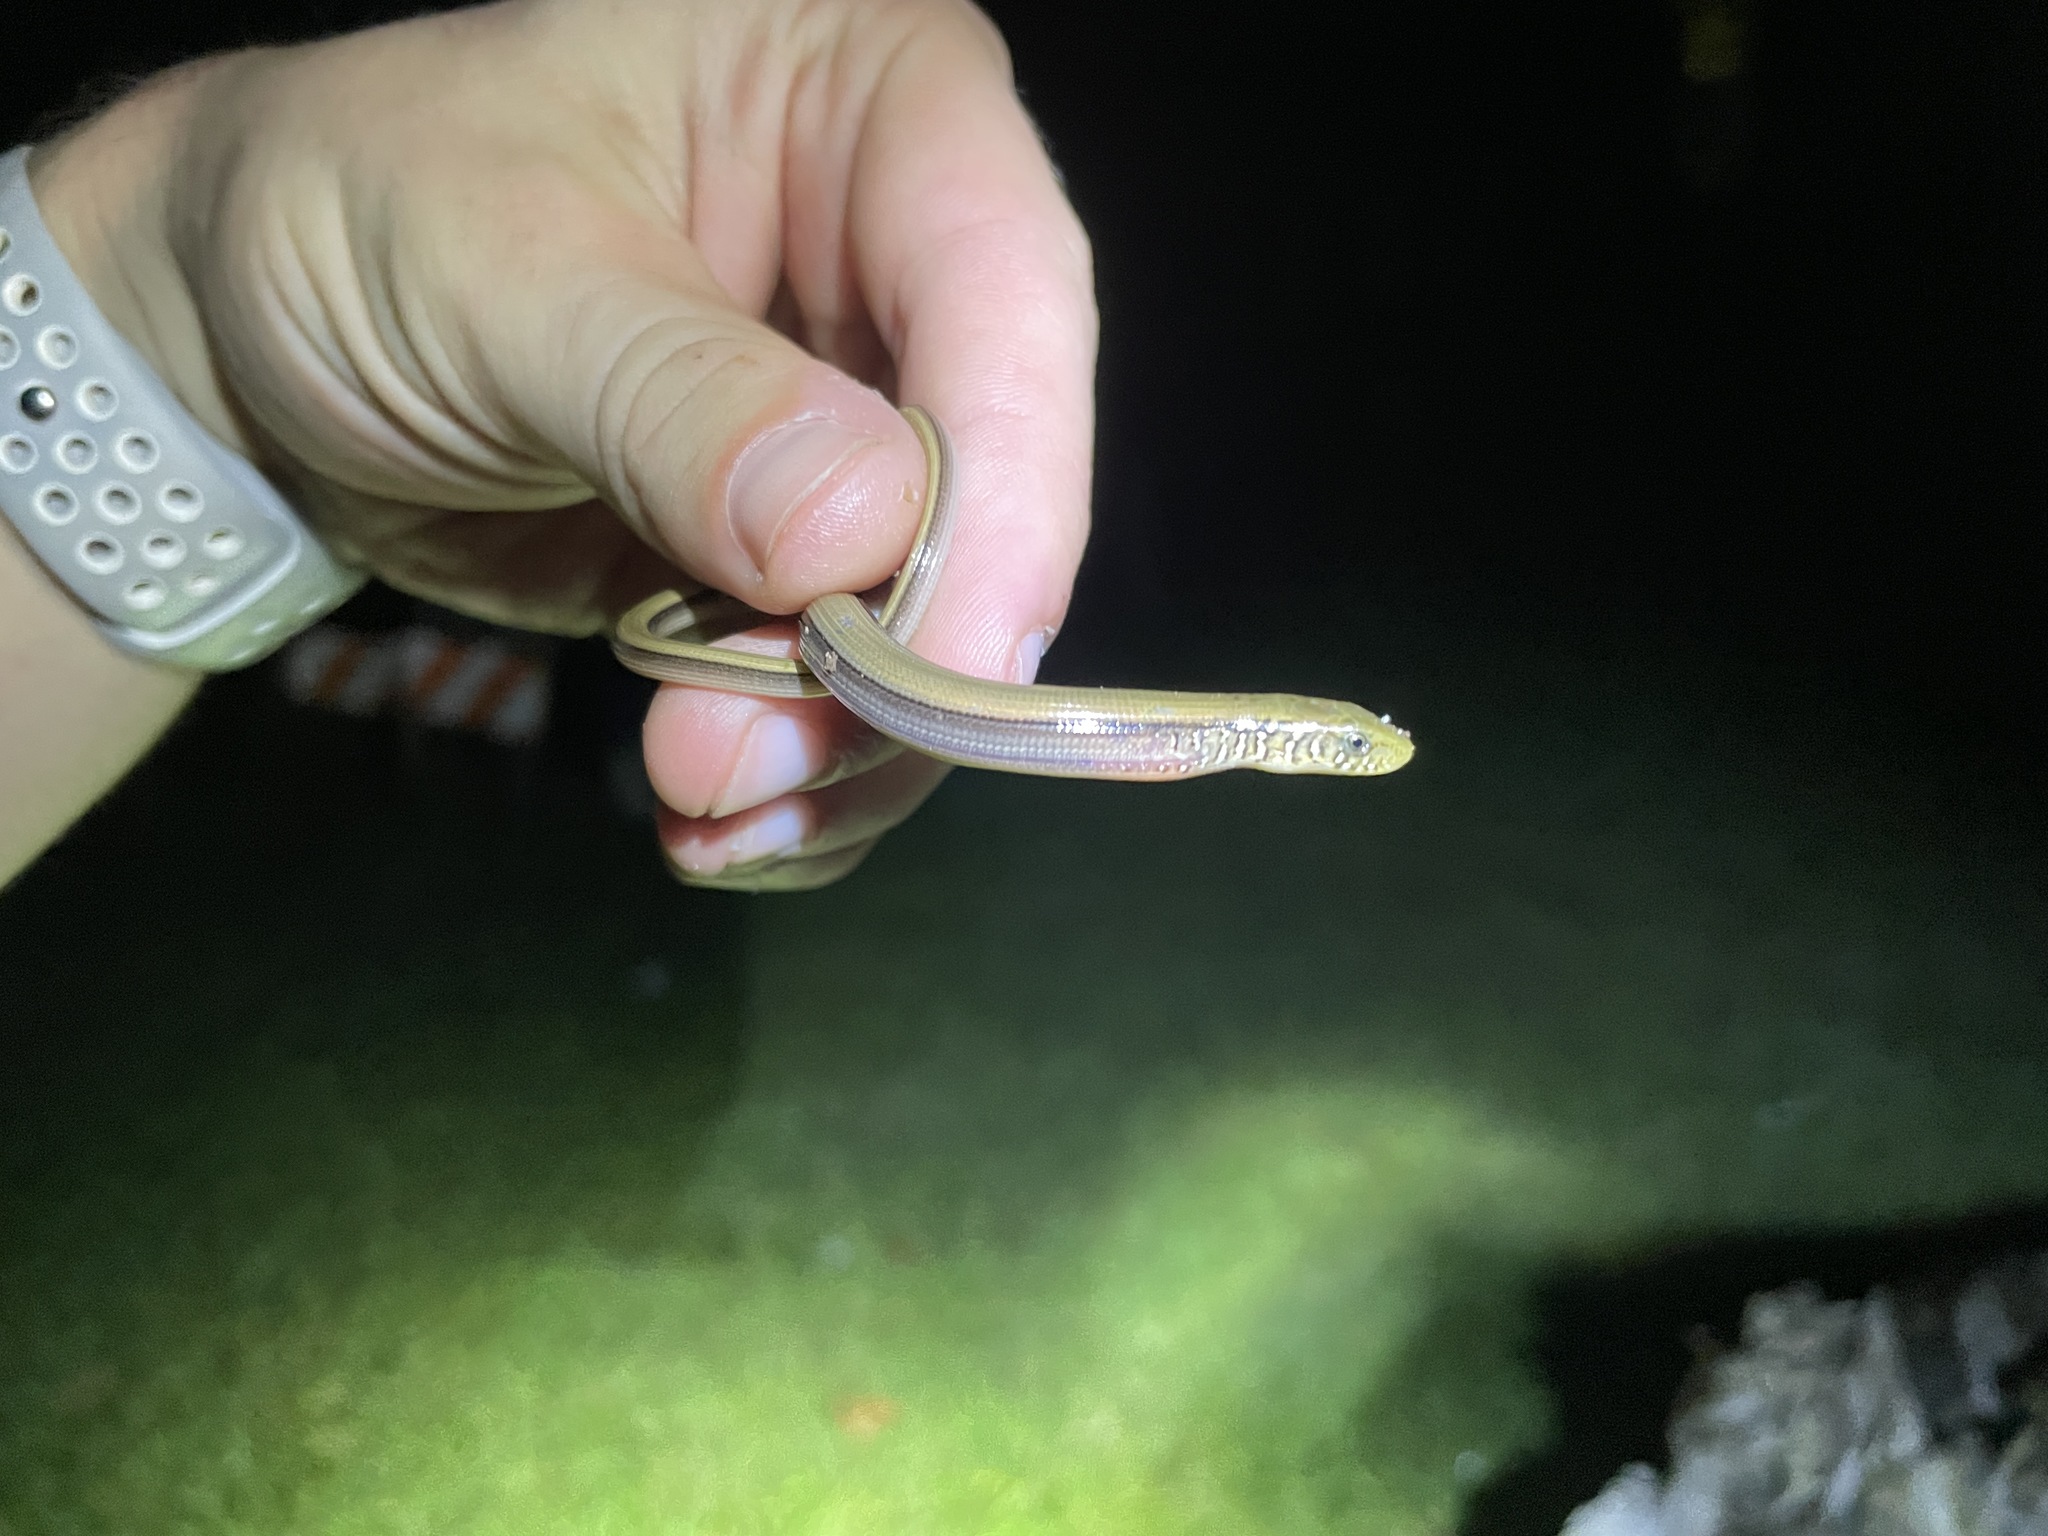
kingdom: Animalia
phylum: Chordata
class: Squamata
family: Anguidae
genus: Ophisaurus
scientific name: Ophisaurus ventralis
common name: Eastern glass lizard
